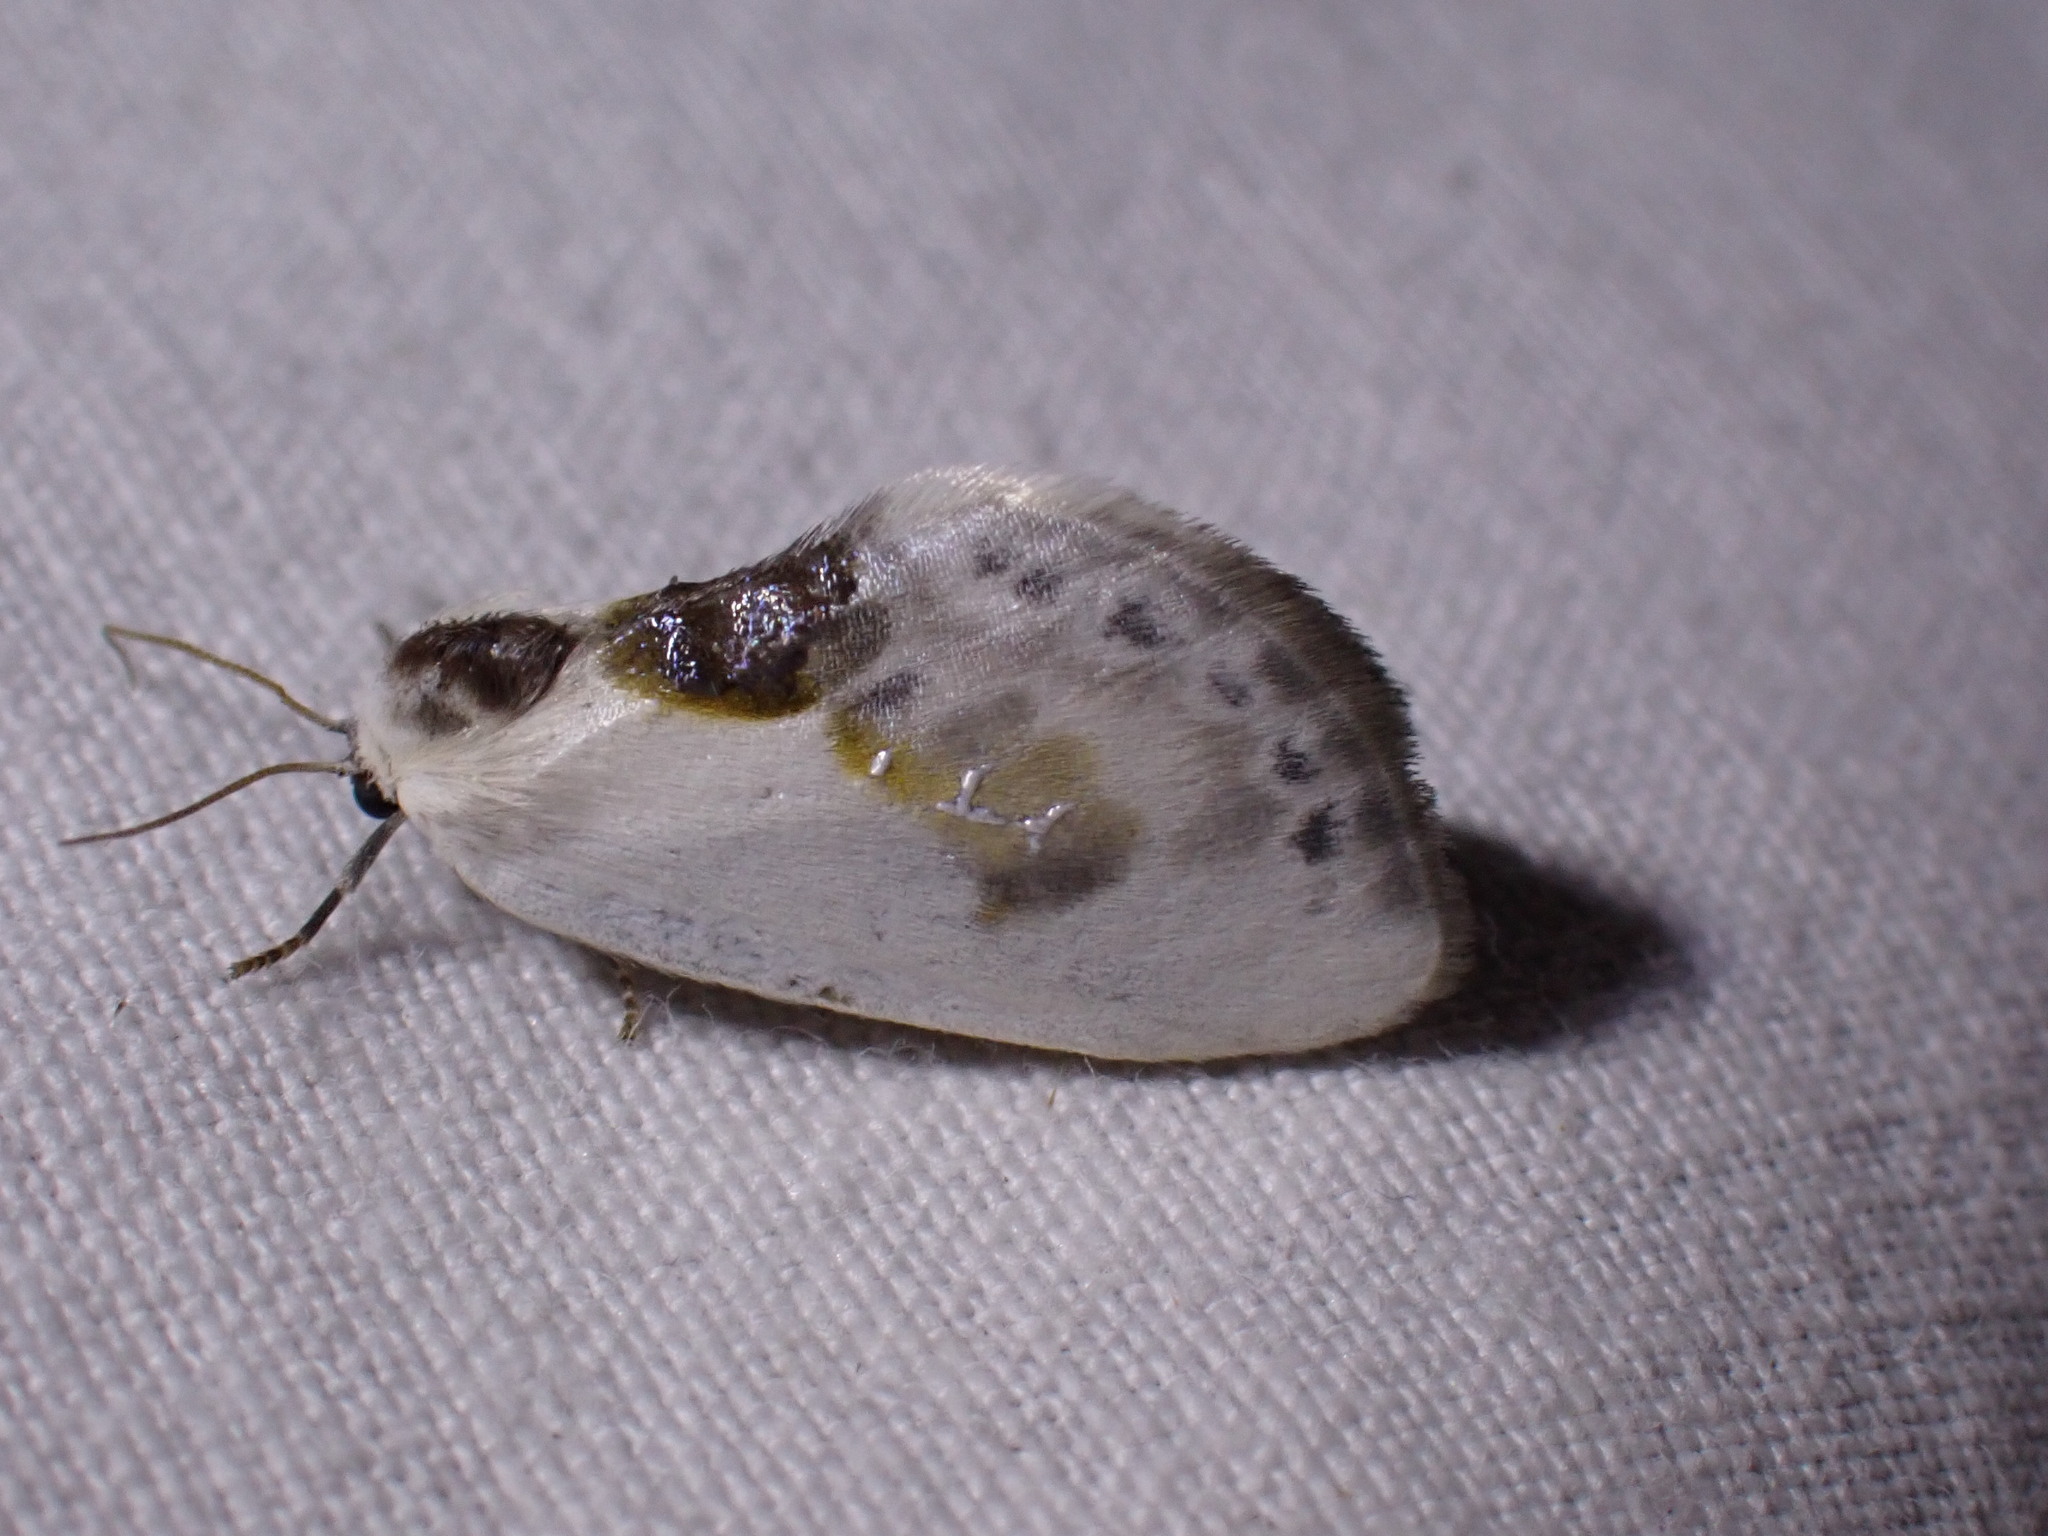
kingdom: Animalia
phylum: Arthropoda
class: Insecta
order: Lepidoptera
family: Drepanidae
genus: Cilix
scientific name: Cilix glaucata
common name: Chinese character
